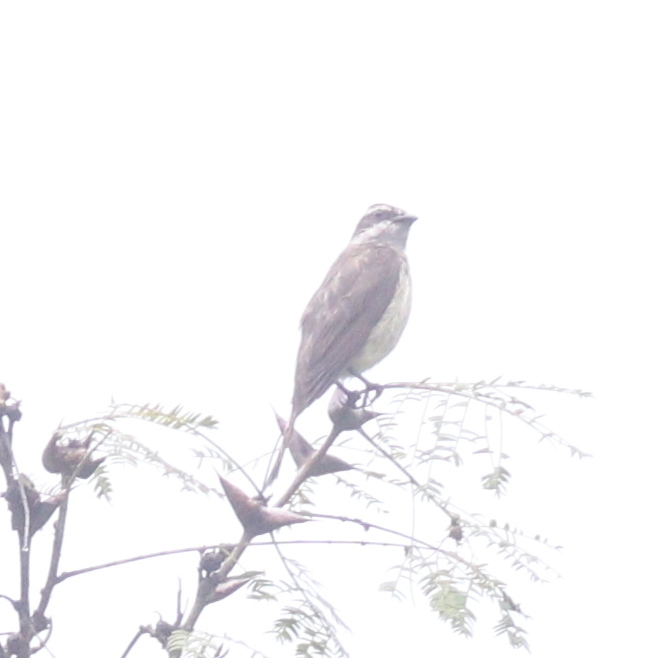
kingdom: Animalia
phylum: Chordata
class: Aves
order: Passeriformes
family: Tyrannidae
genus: Legatus
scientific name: Legatus leucophaius
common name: Piratic flycatcher
